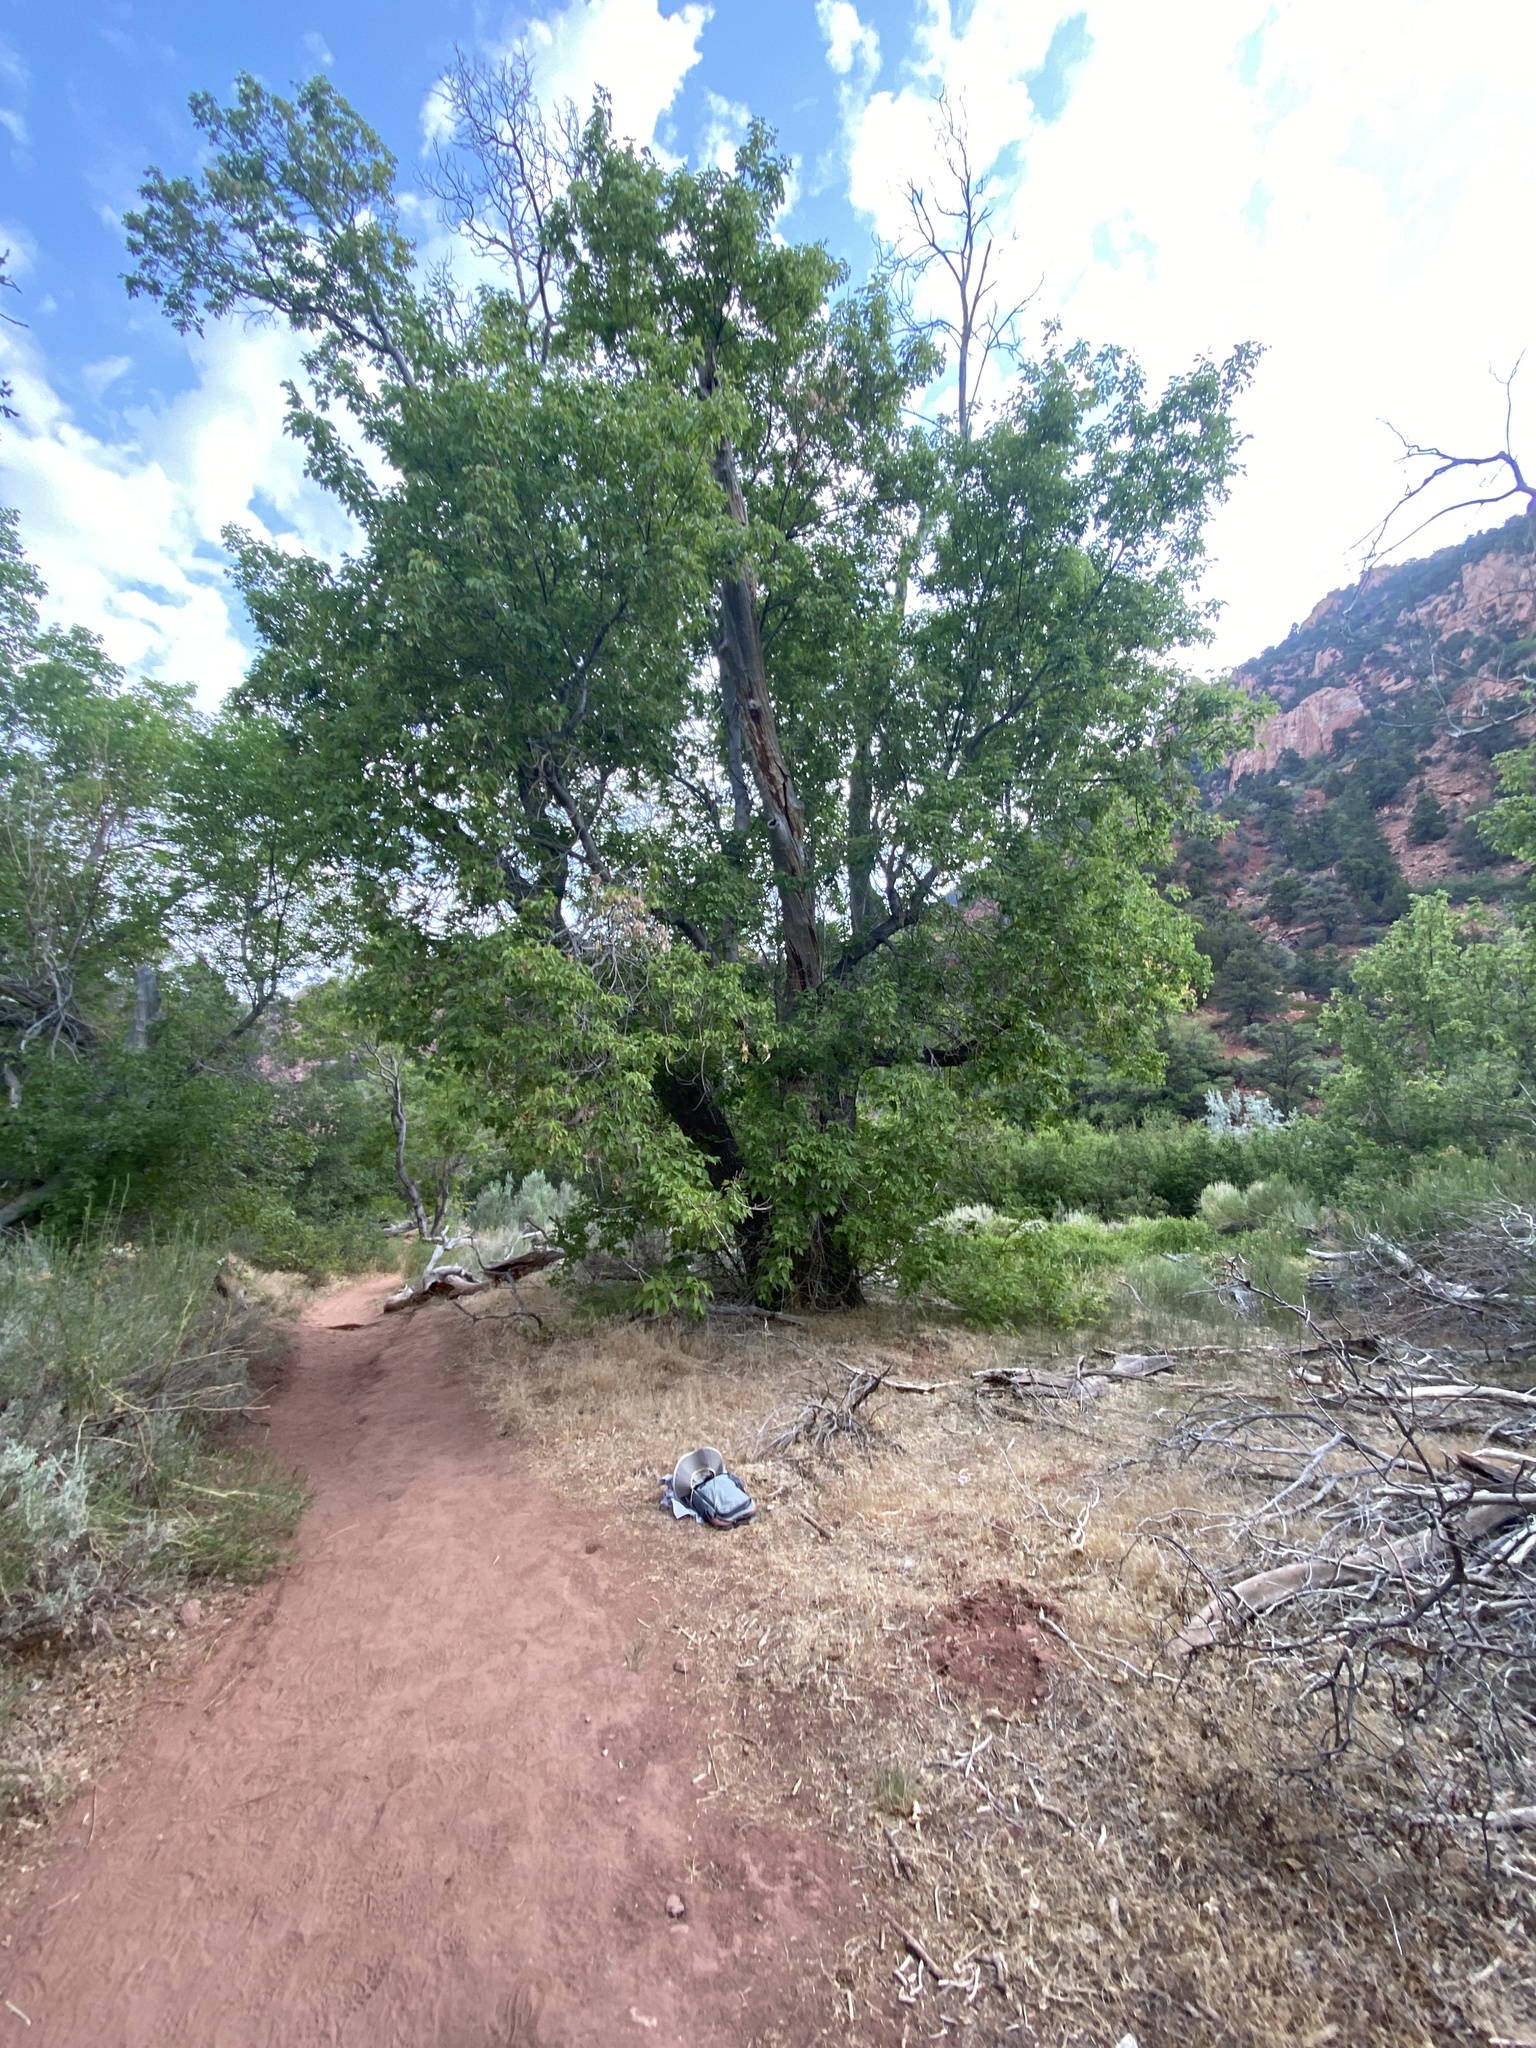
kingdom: Plantae
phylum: Tracheophyta
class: Magnoliopsida
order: Sapindales
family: Sapindaceae
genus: Acer
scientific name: Acer negundo
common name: Ashleaf maple
